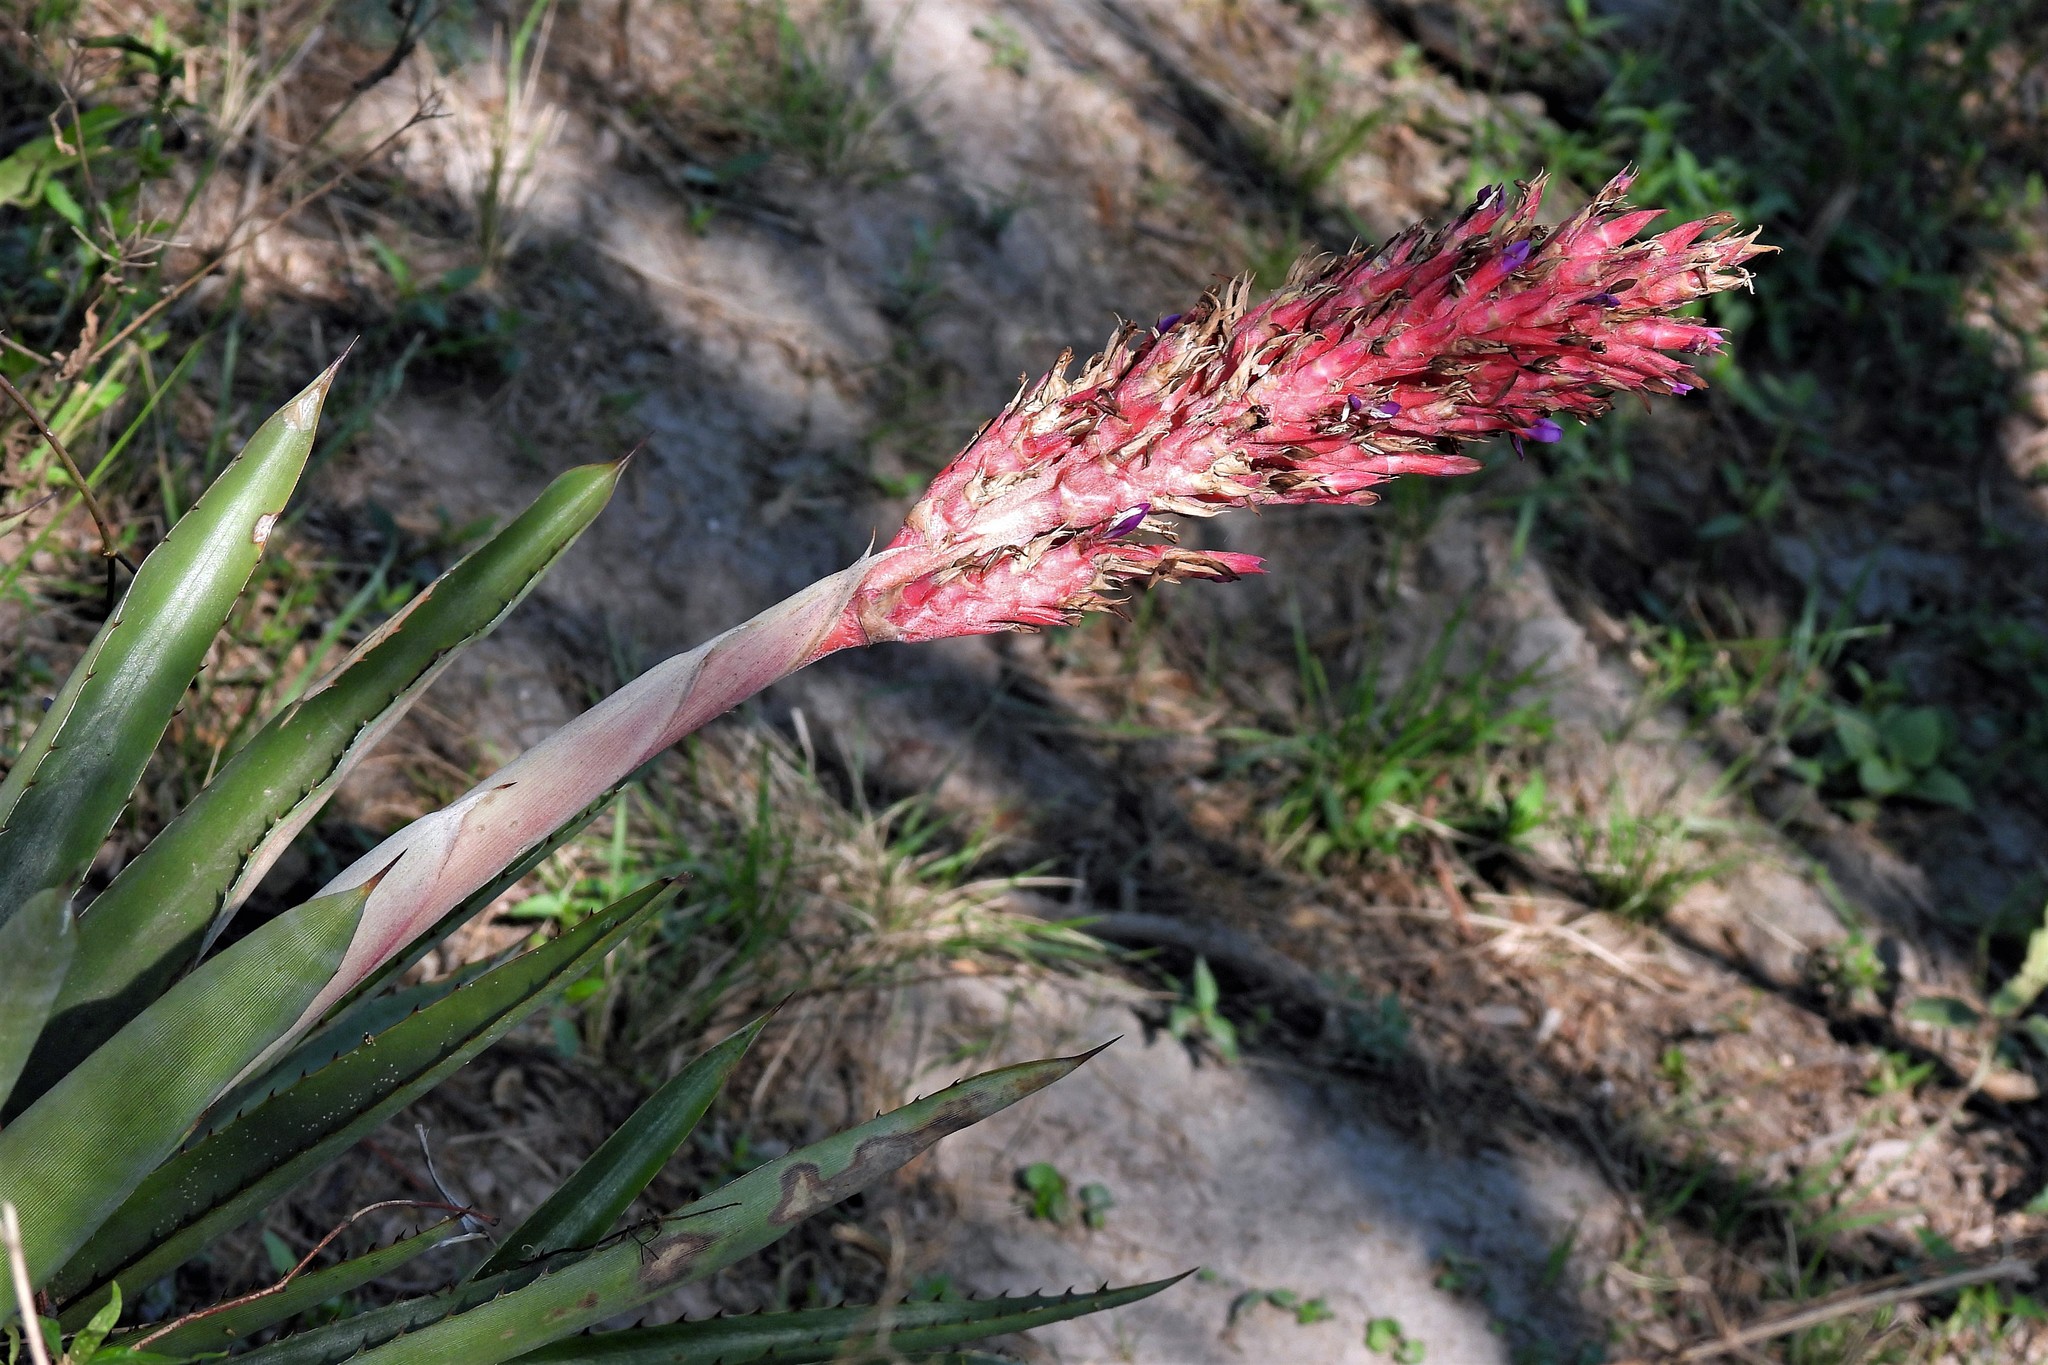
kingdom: Plantae
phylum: Tracheophyta
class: Liliopsida
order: Poales
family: Bromeliaceae
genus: Aechmea
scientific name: Aechmea distichantha
